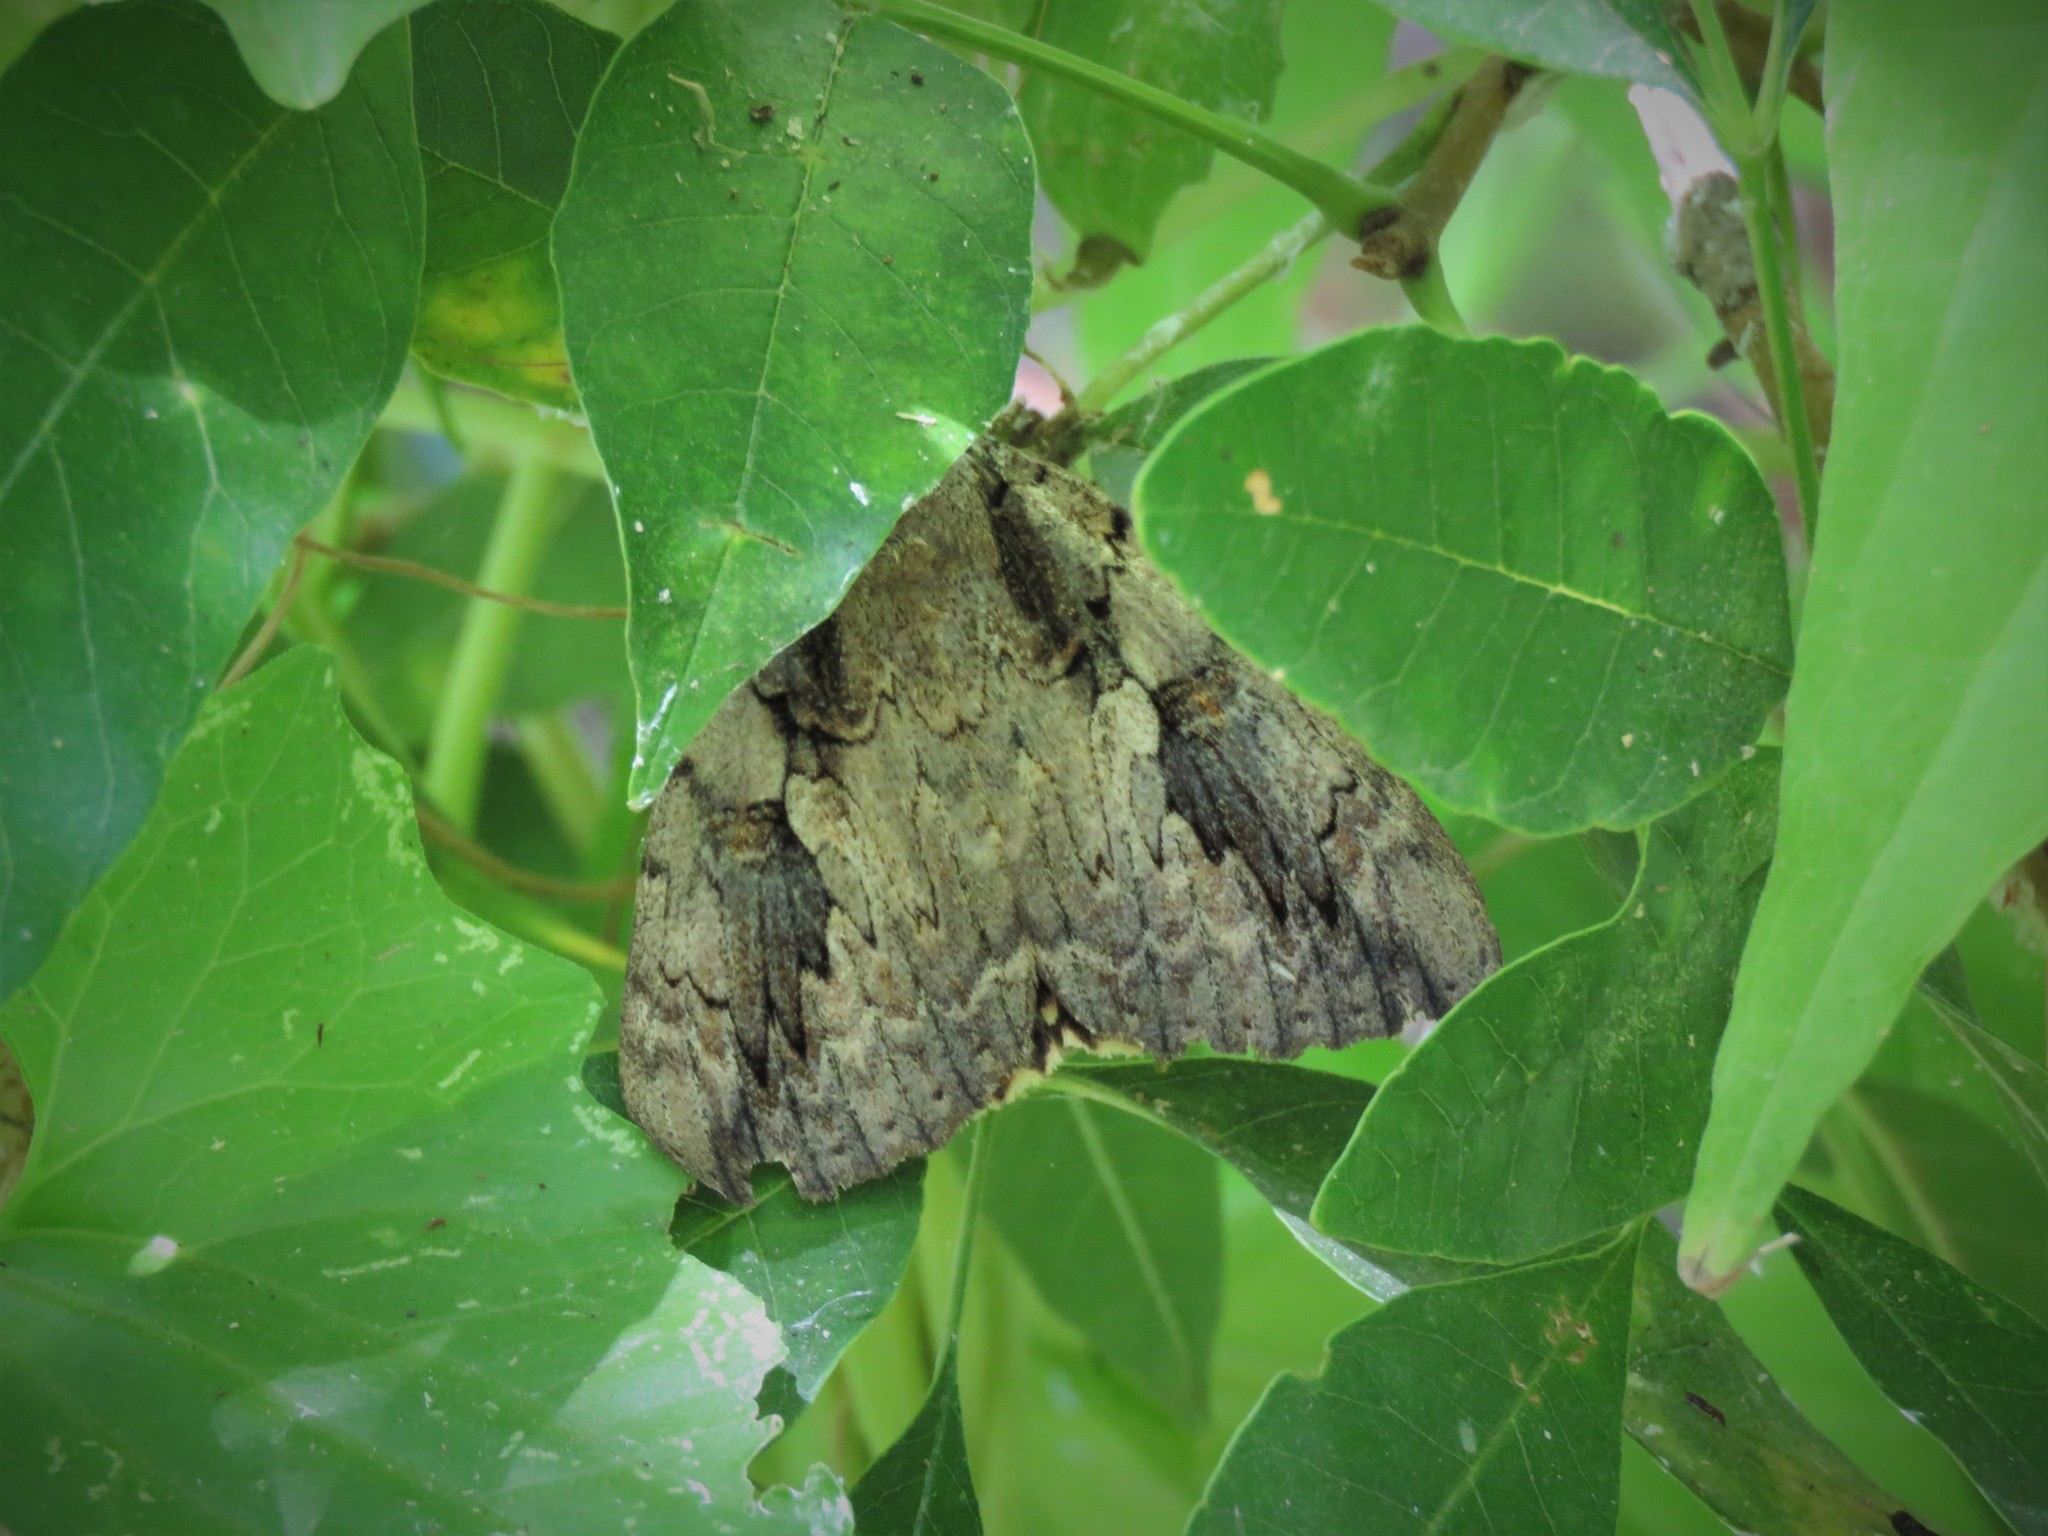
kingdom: Animalia
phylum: Arthropoda
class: Insecta
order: Lepidoptera
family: Erebidae
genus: Catocala
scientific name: Catocala amatrix
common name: Sweetheart underwing
